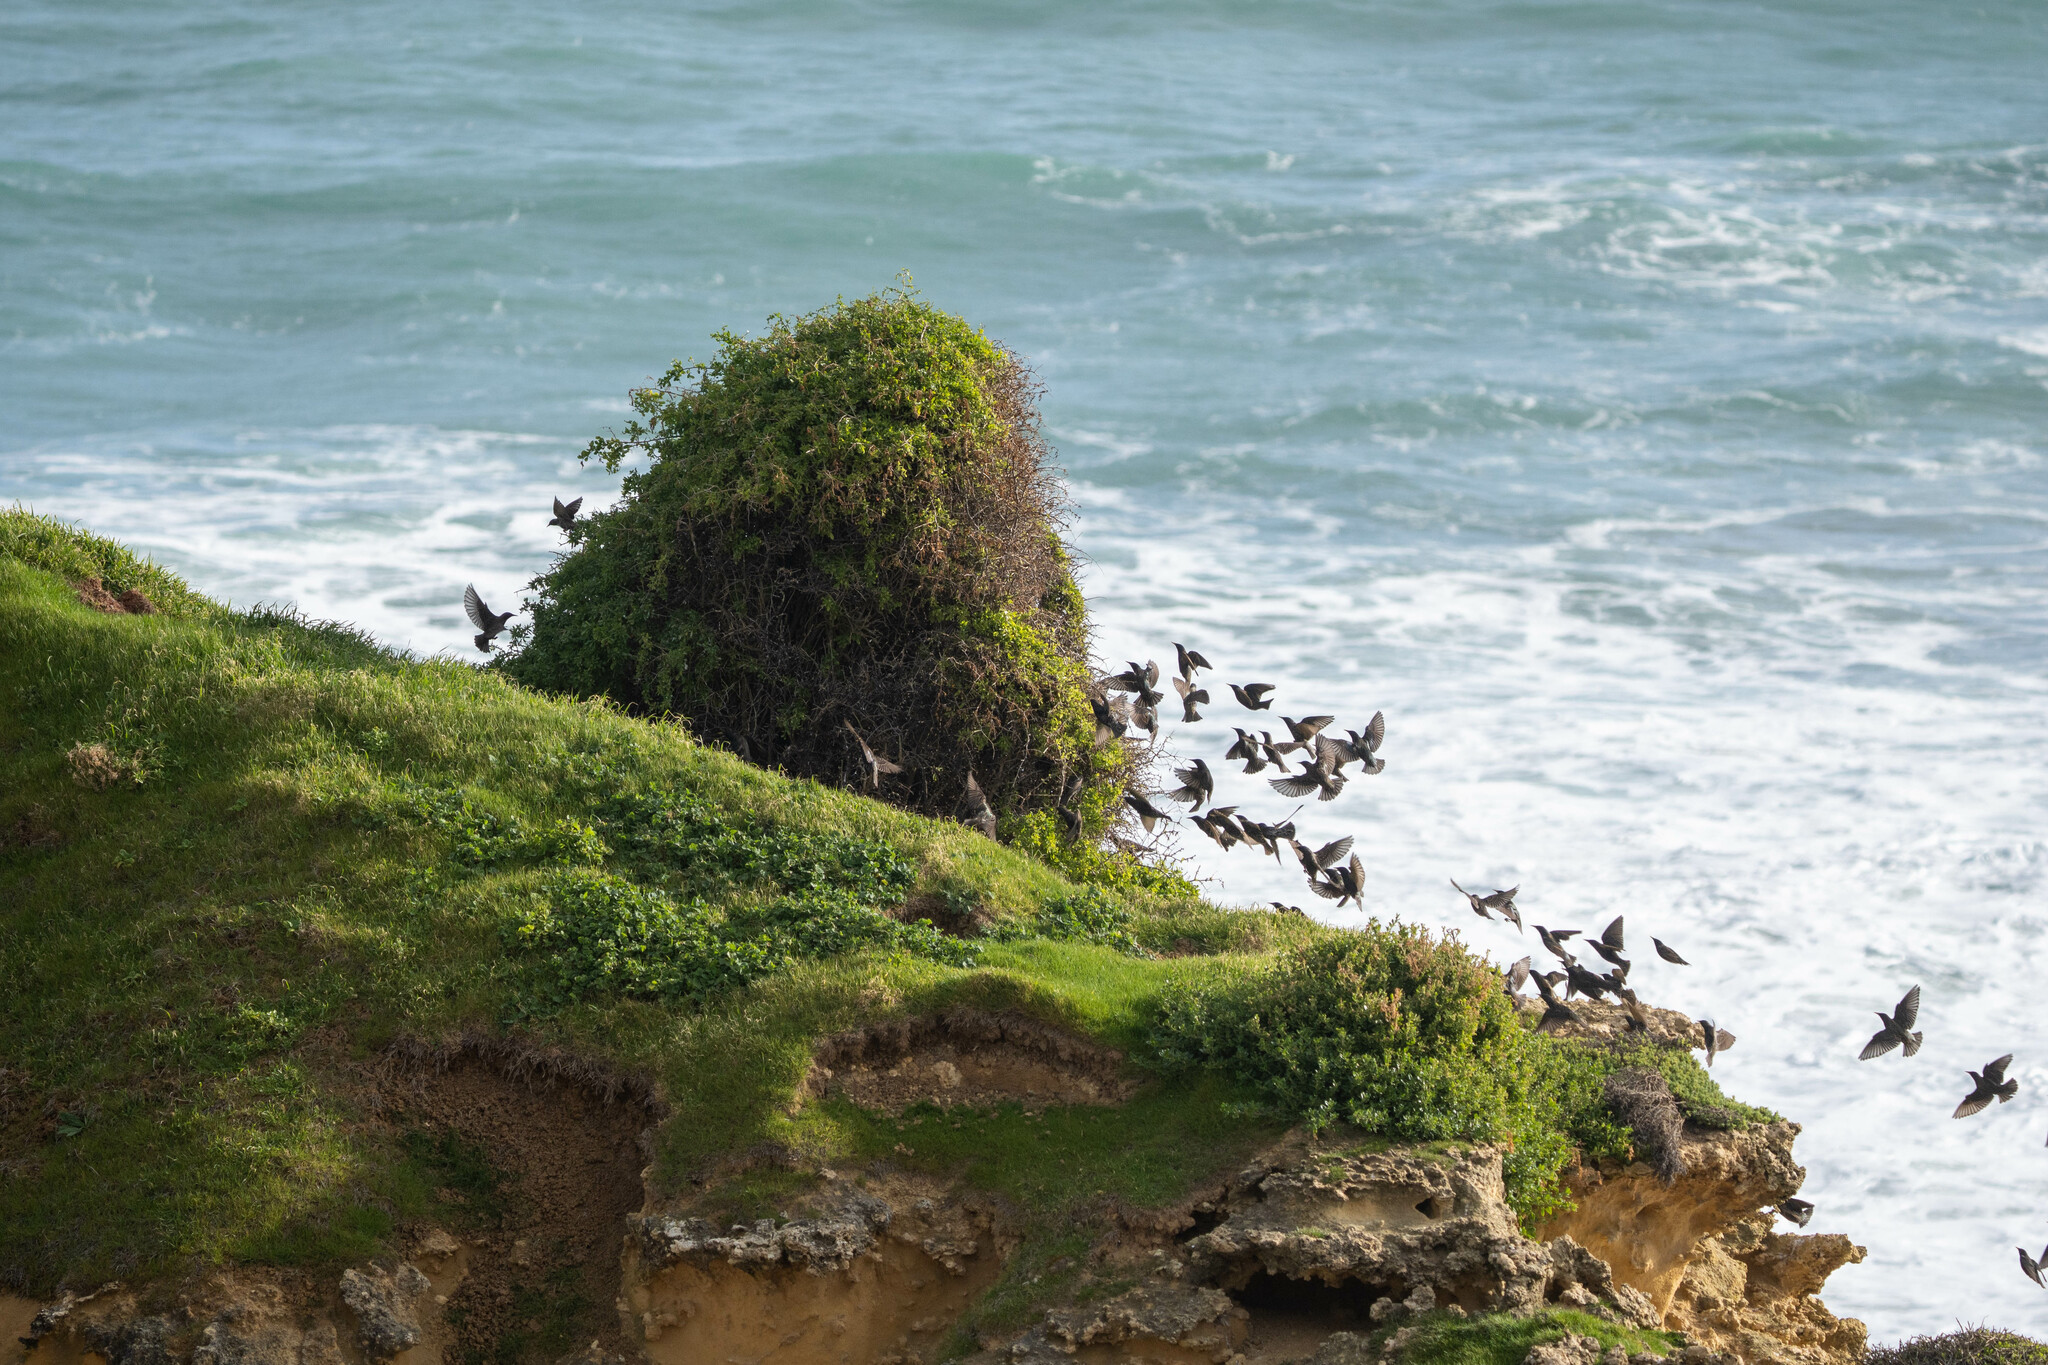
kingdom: Animalia
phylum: Chordata
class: Aves
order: Passeriformes
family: Sturnidae
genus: Sturnus
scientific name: Sturnus vulgaris
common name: Common starling
